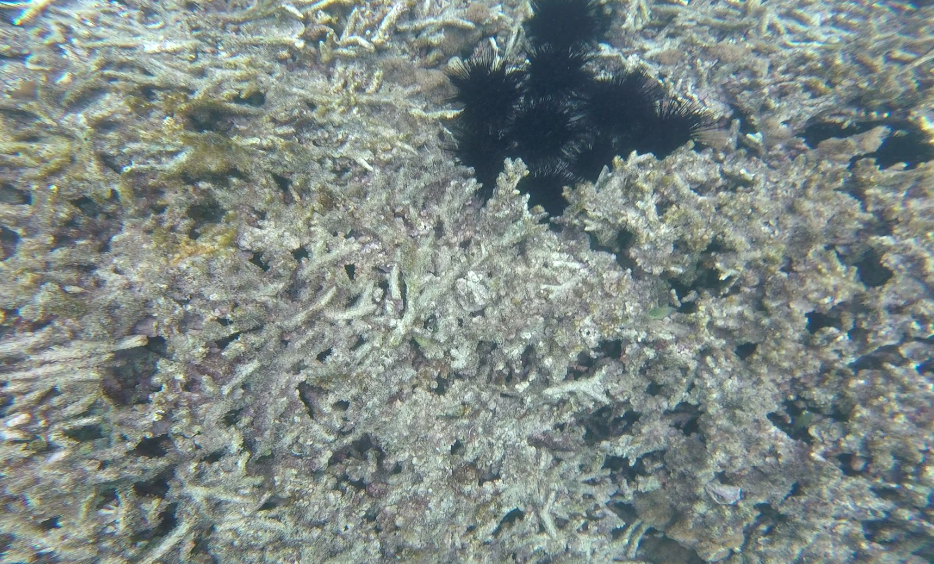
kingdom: Animalia
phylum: Echinodermata
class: Echinoidea
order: Diadematoida
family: Diadematidae
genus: Echinothrix
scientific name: Echinothrix calamaris
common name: Banded sea urchin
